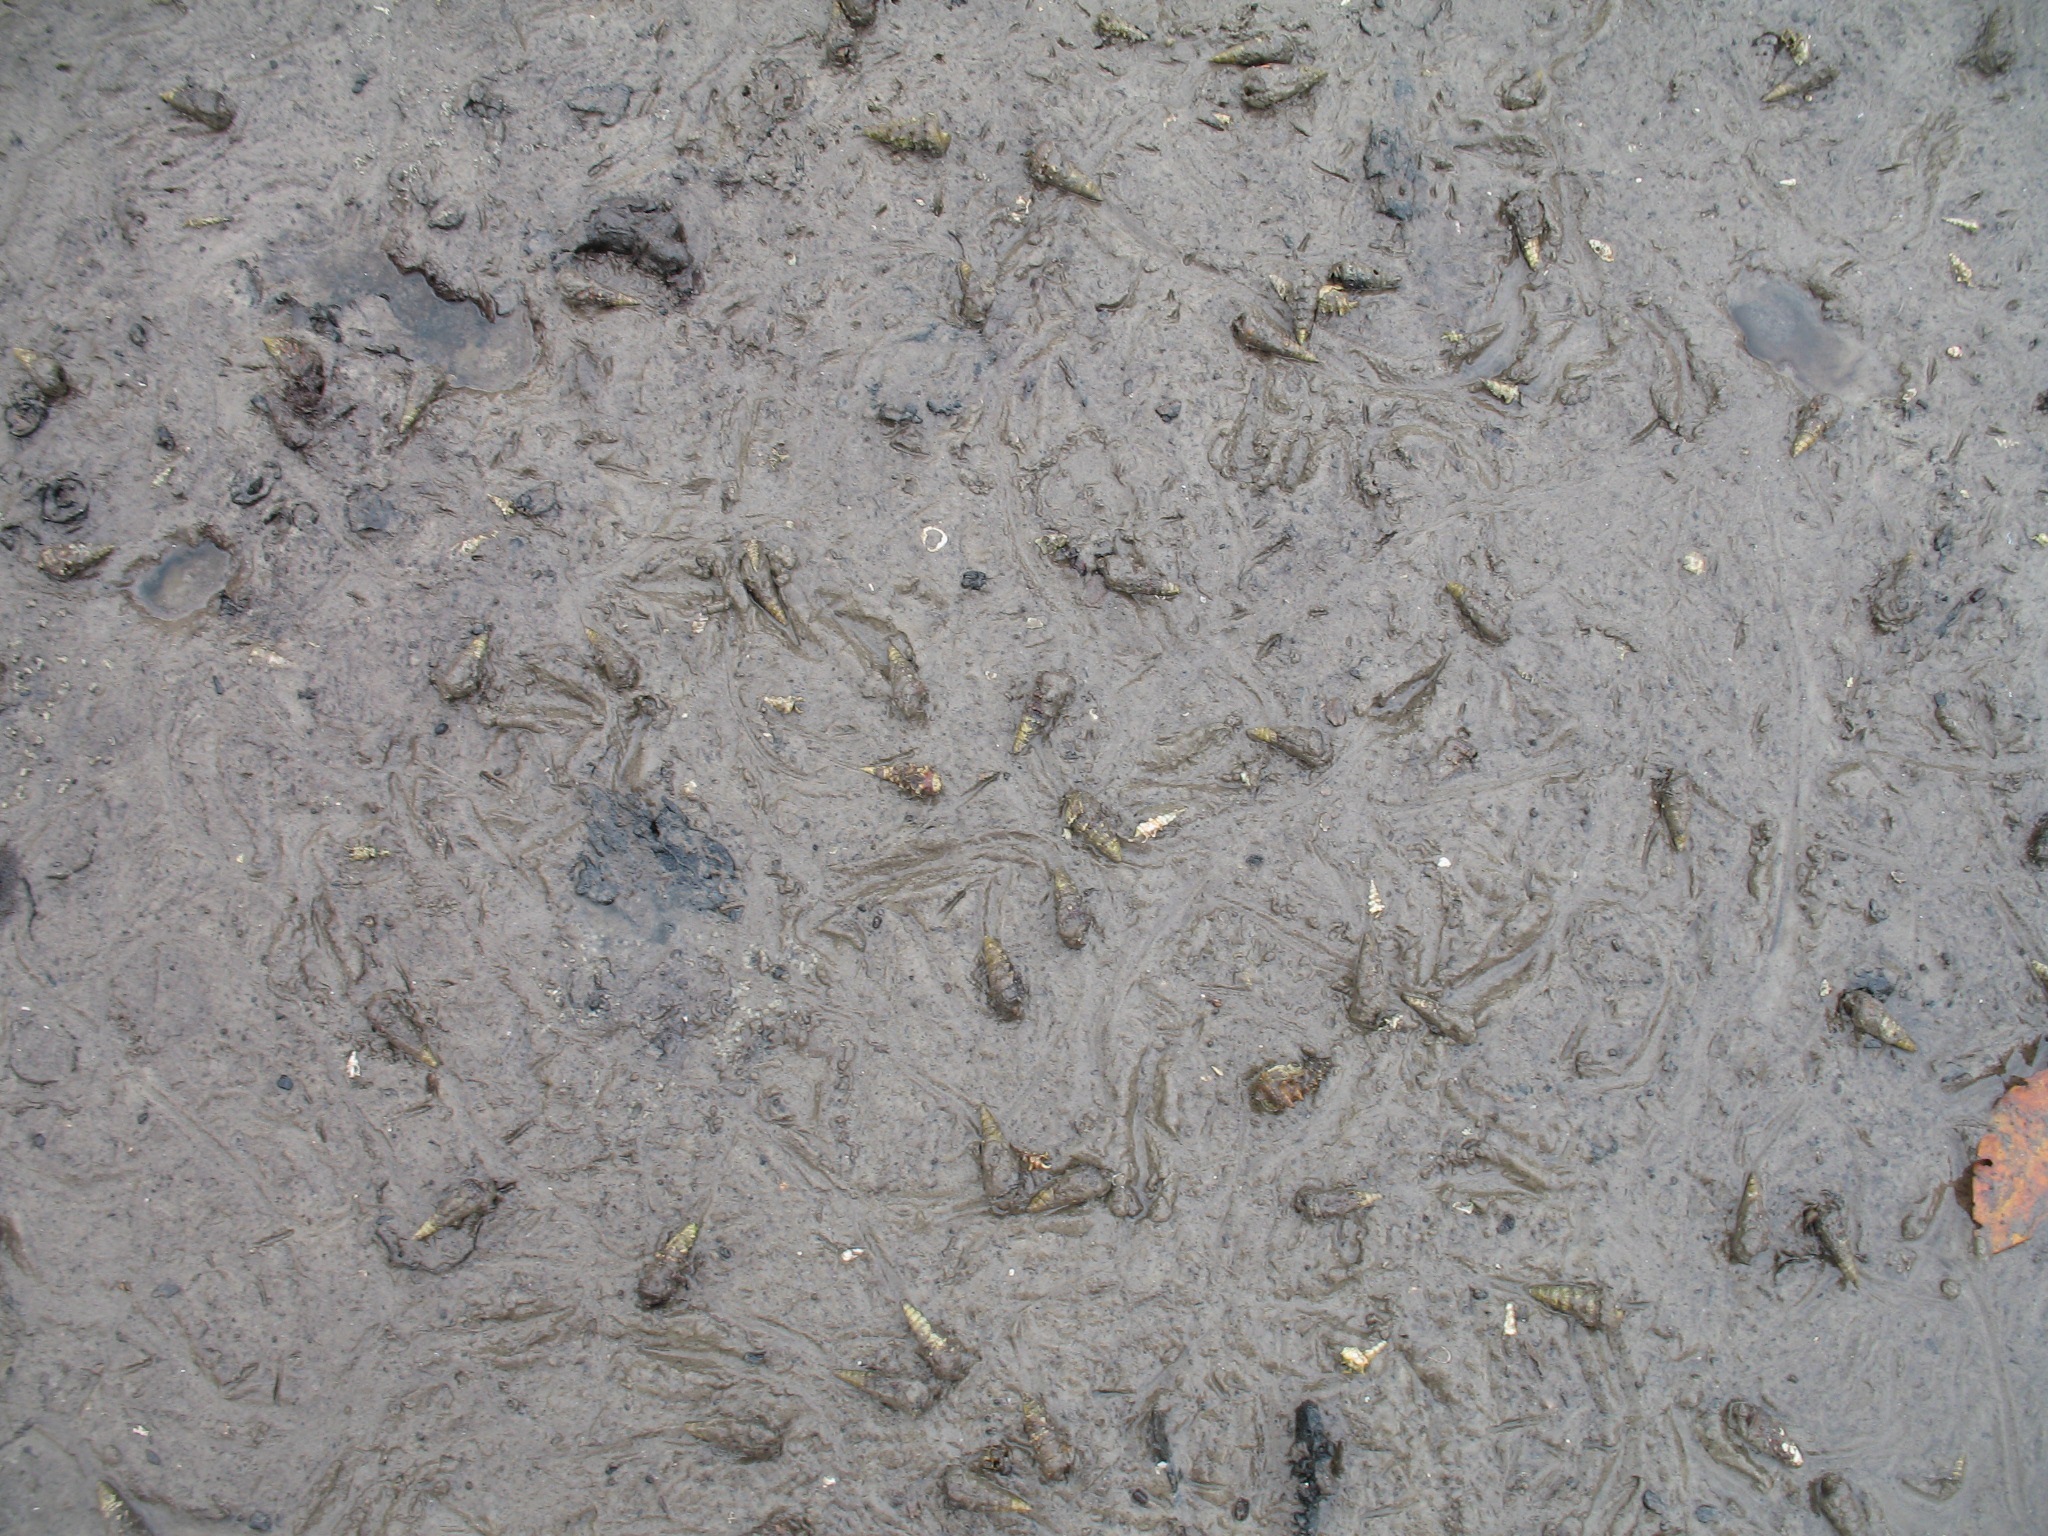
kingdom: Animalia
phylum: Mollusca
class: Gastropoda
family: Potamididae
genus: Tympanotonos
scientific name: Tympanotonos fuscatus
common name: Mud-flat periwinkle
